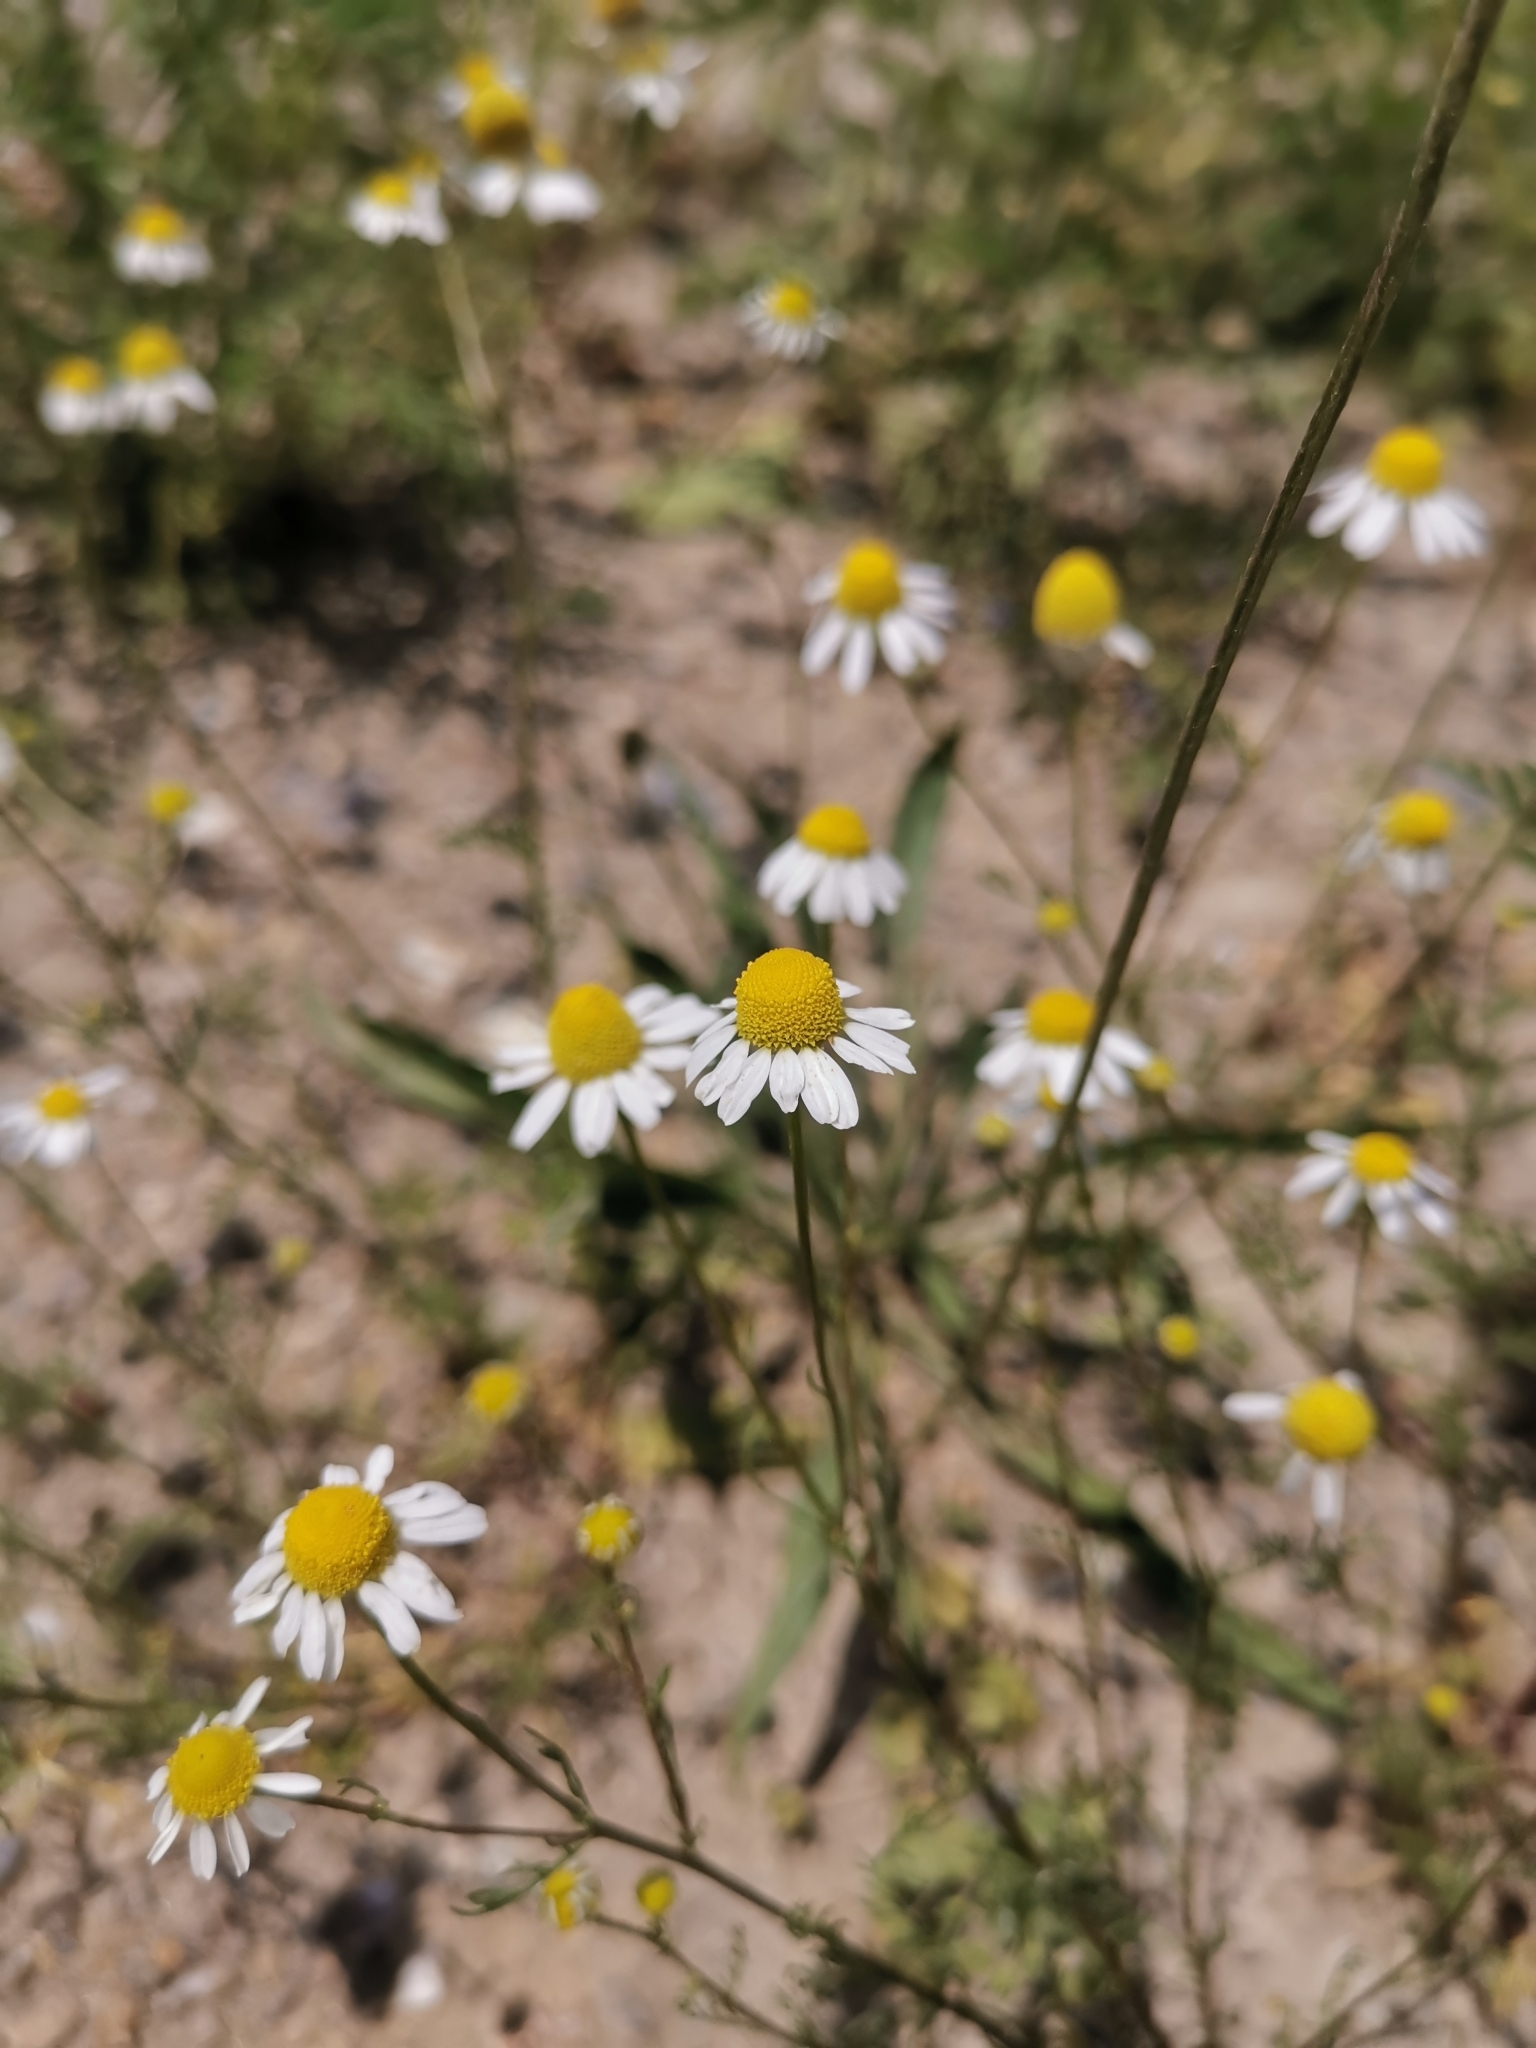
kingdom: Plantae
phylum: Tracheophyta
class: Magnoliopsida
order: Asterales
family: Asteraceae
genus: Matricaria
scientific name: Matricaria chamomilla
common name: Scented mayweed
